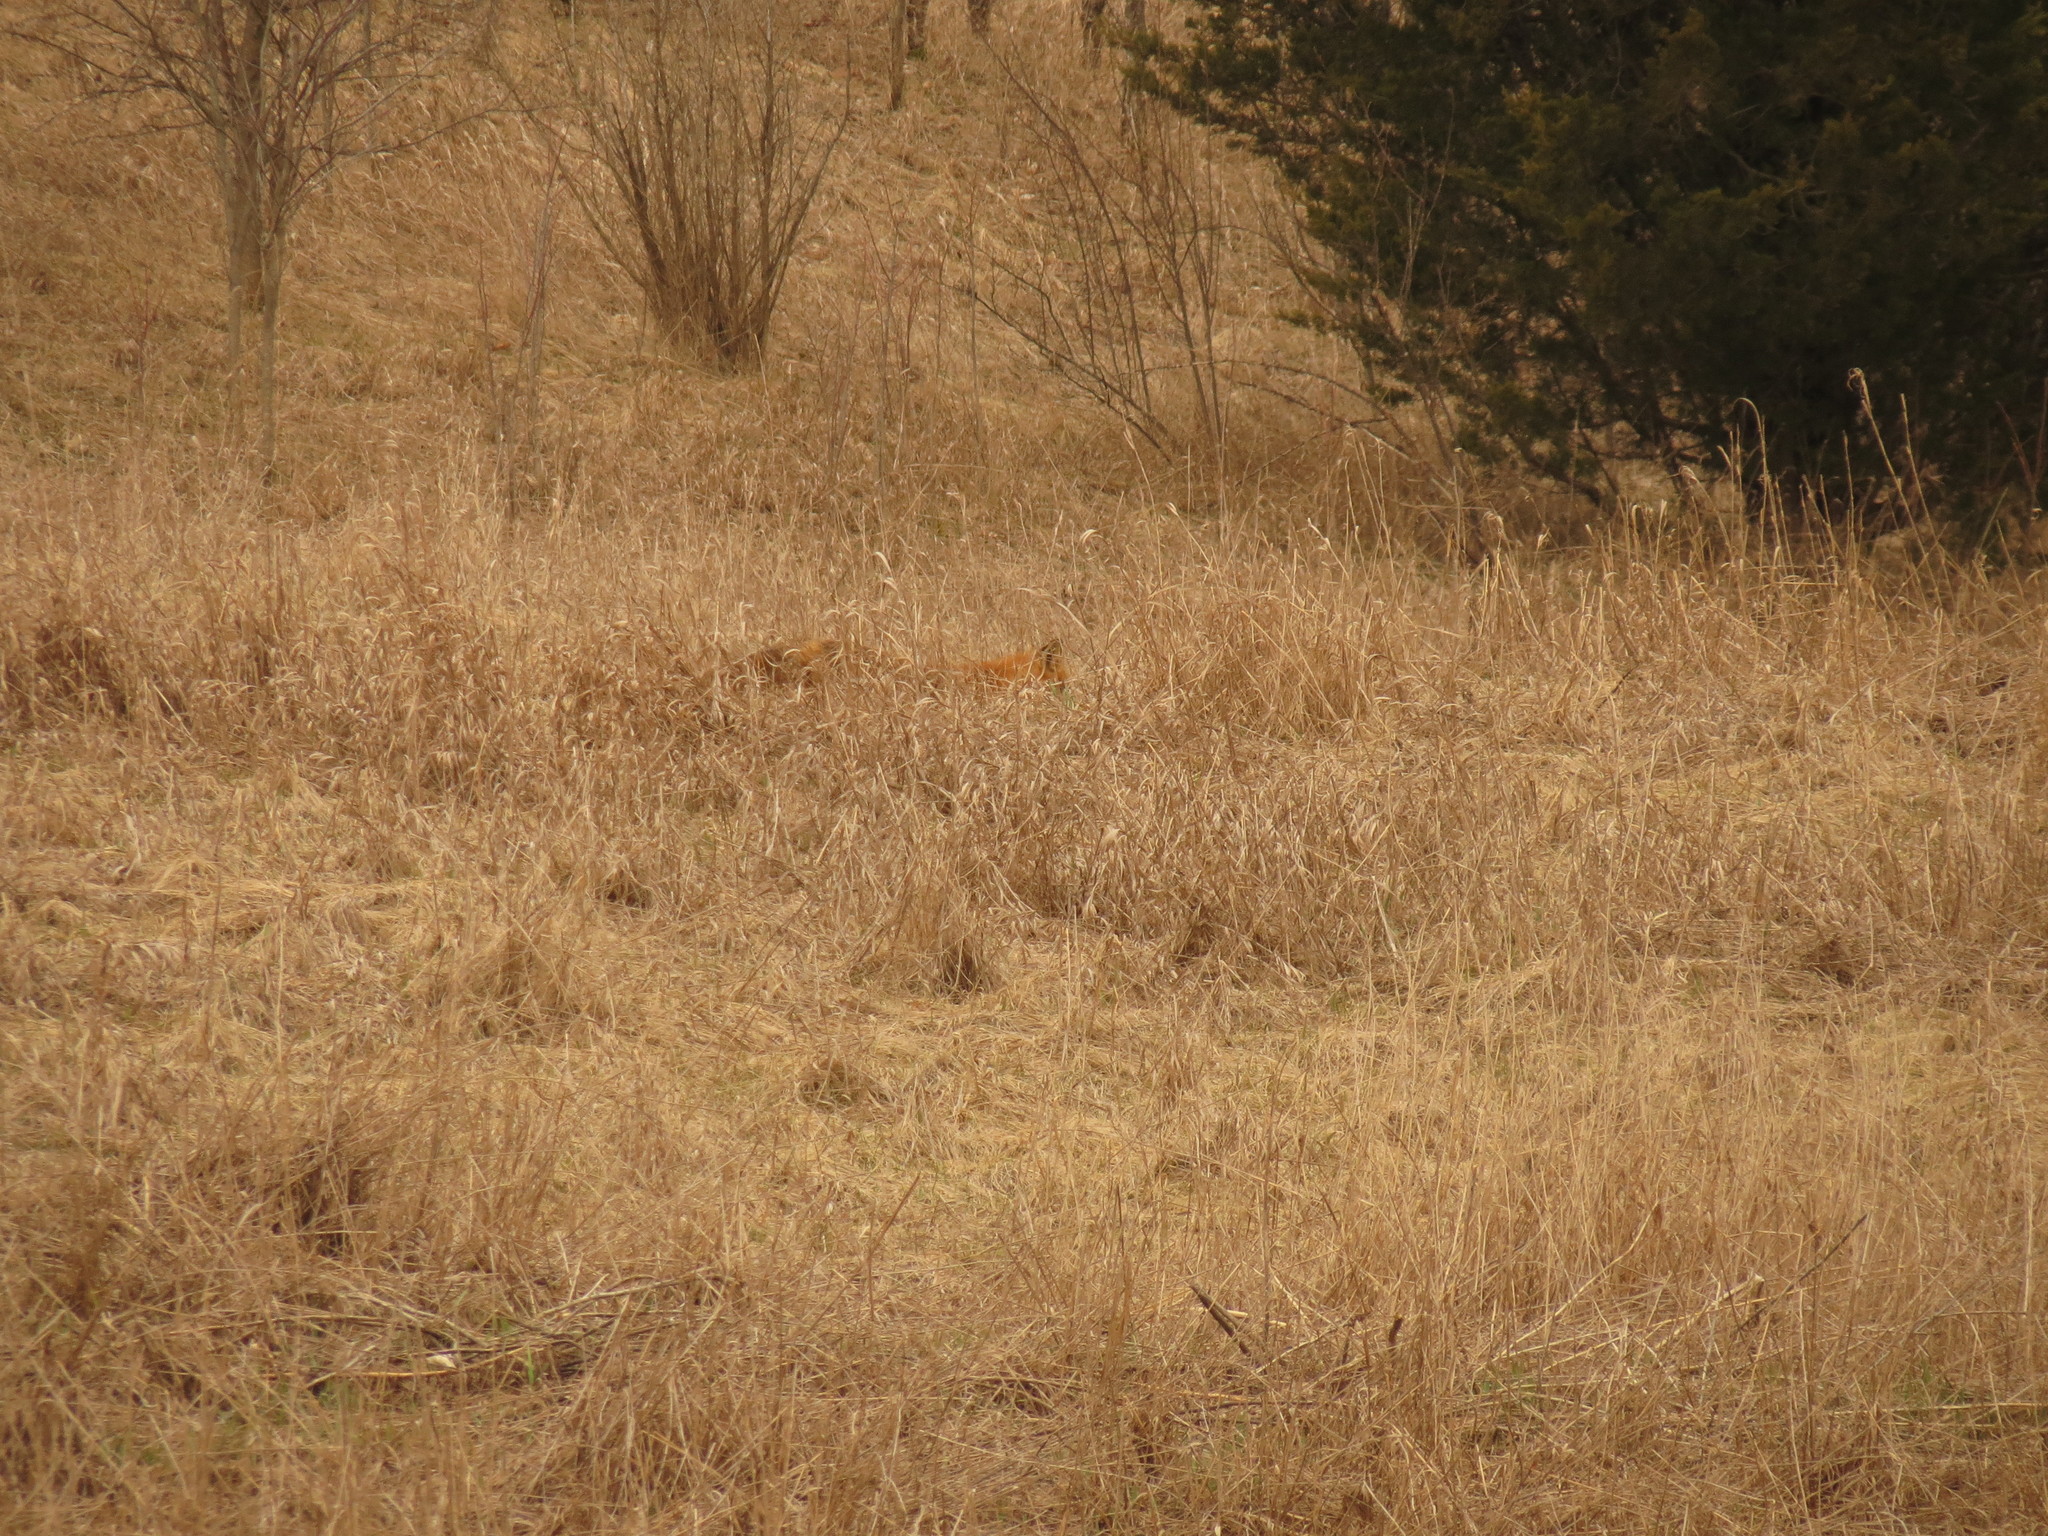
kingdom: Animalia
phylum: Chordata
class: Mammalia
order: Carnivora
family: Canidae
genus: Vulpes
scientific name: Vulpes vulpes
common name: Red fox
